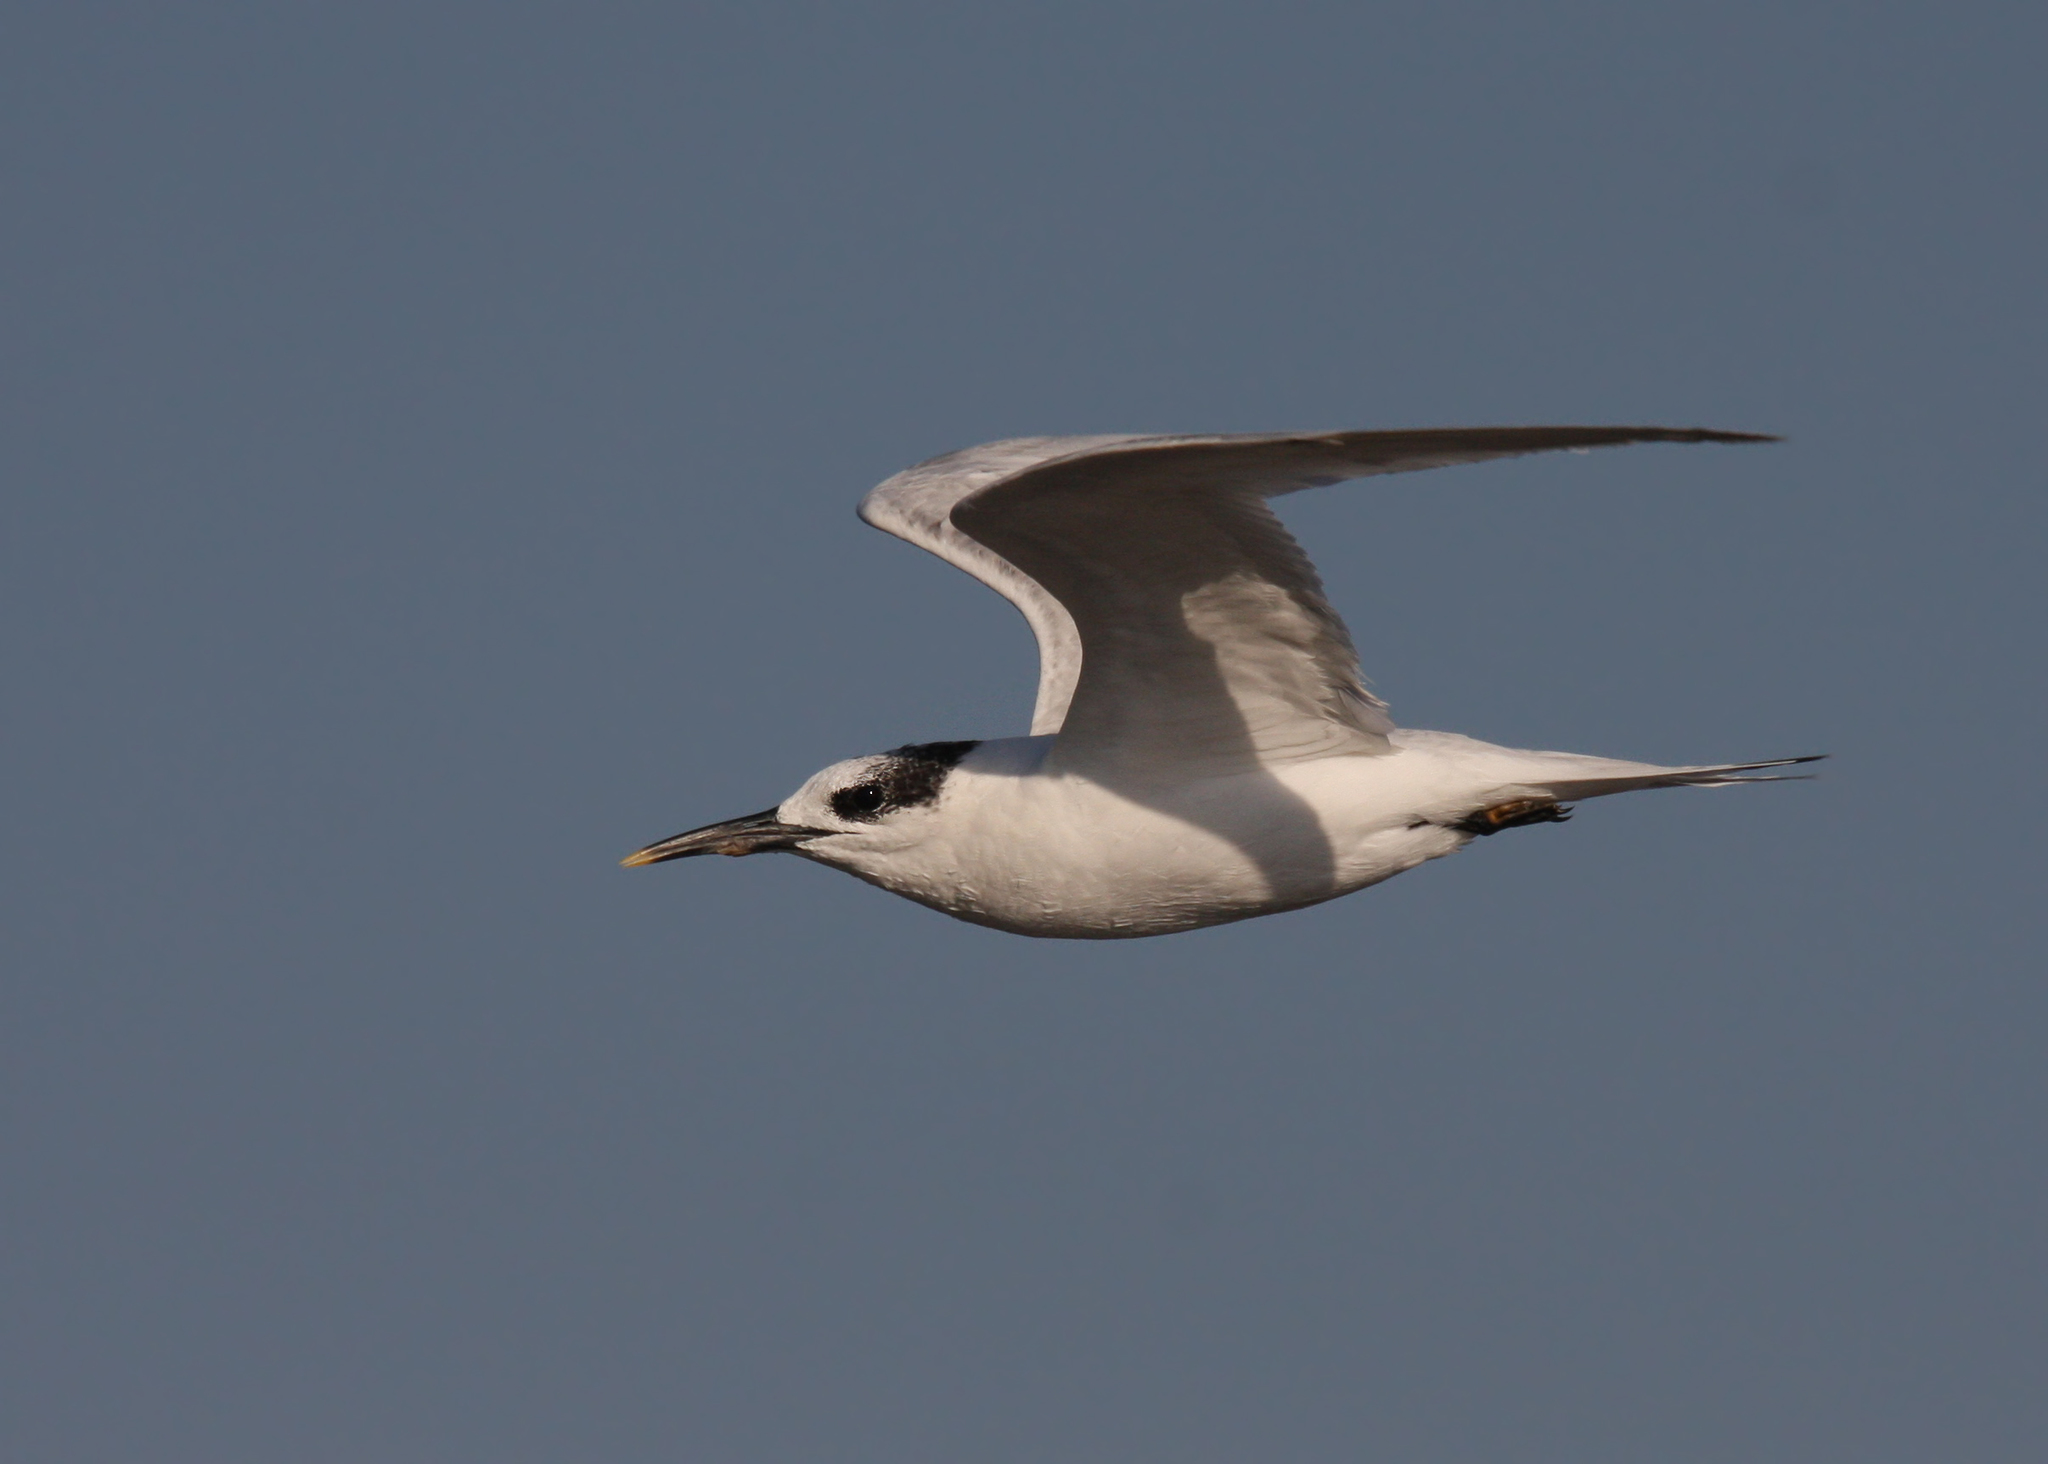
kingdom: Animalia
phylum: Chordata
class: Aves
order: Charadriiformes
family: Laridae
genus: Thalasseus
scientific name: Thalasseus sandvicensis
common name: Sandwich tern
